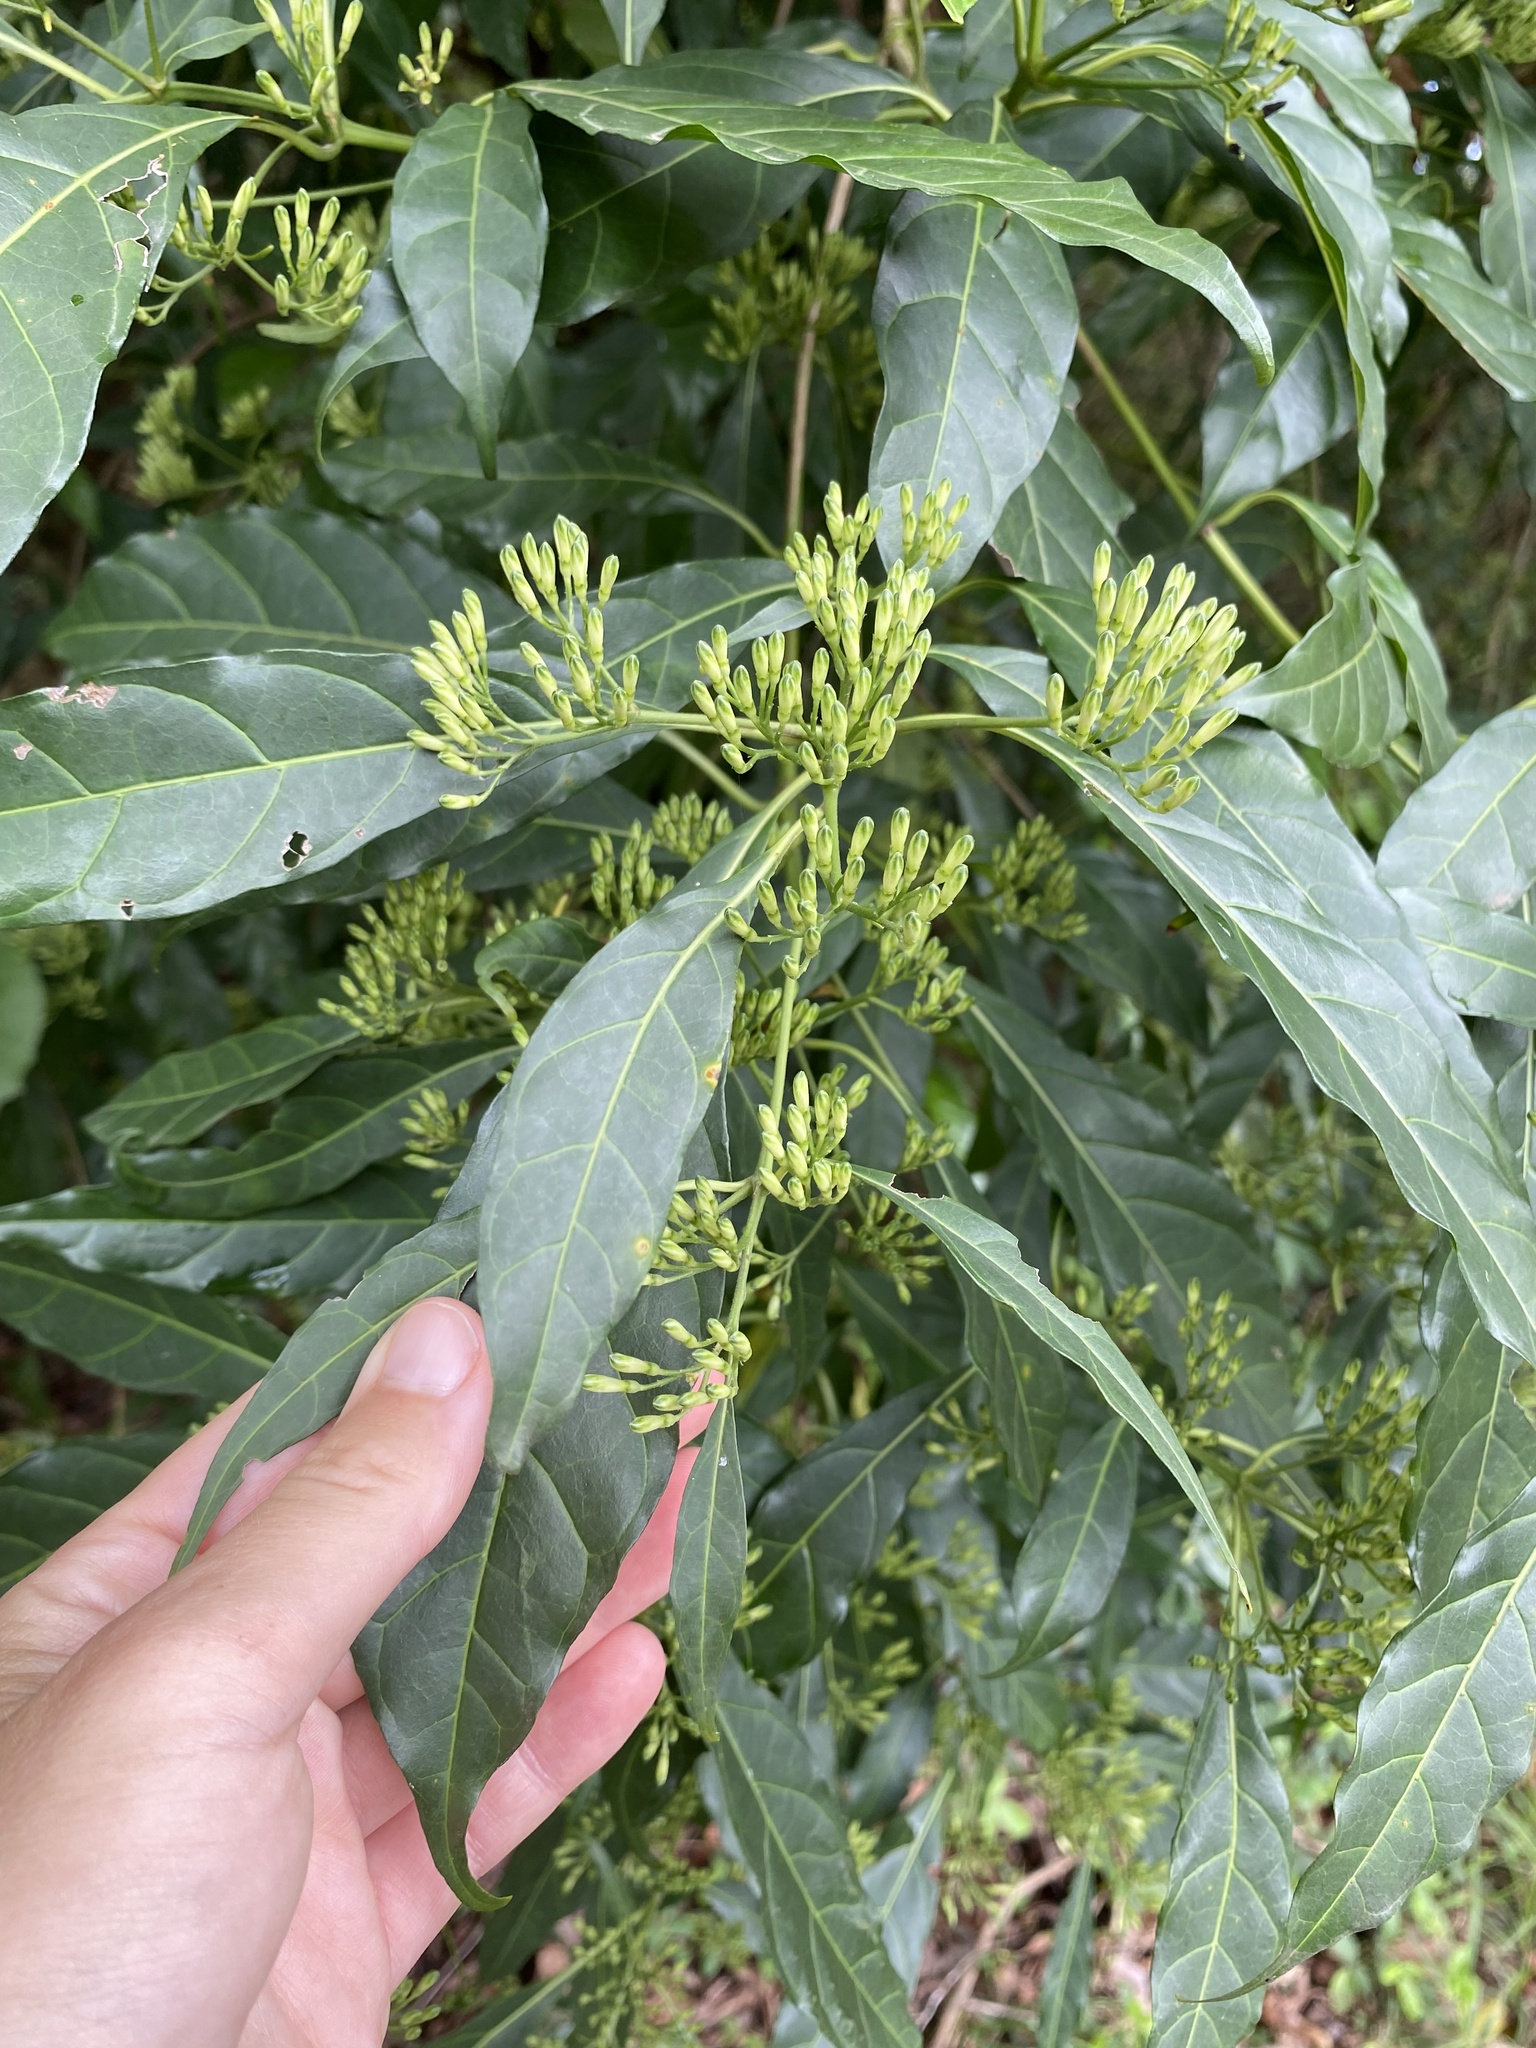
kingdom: Plantae
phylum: Tracheophyta
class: Magnoliopsida
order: Gentianales
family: Rubiaceae
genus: Tarenna
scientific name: Tarenna pavettoides
